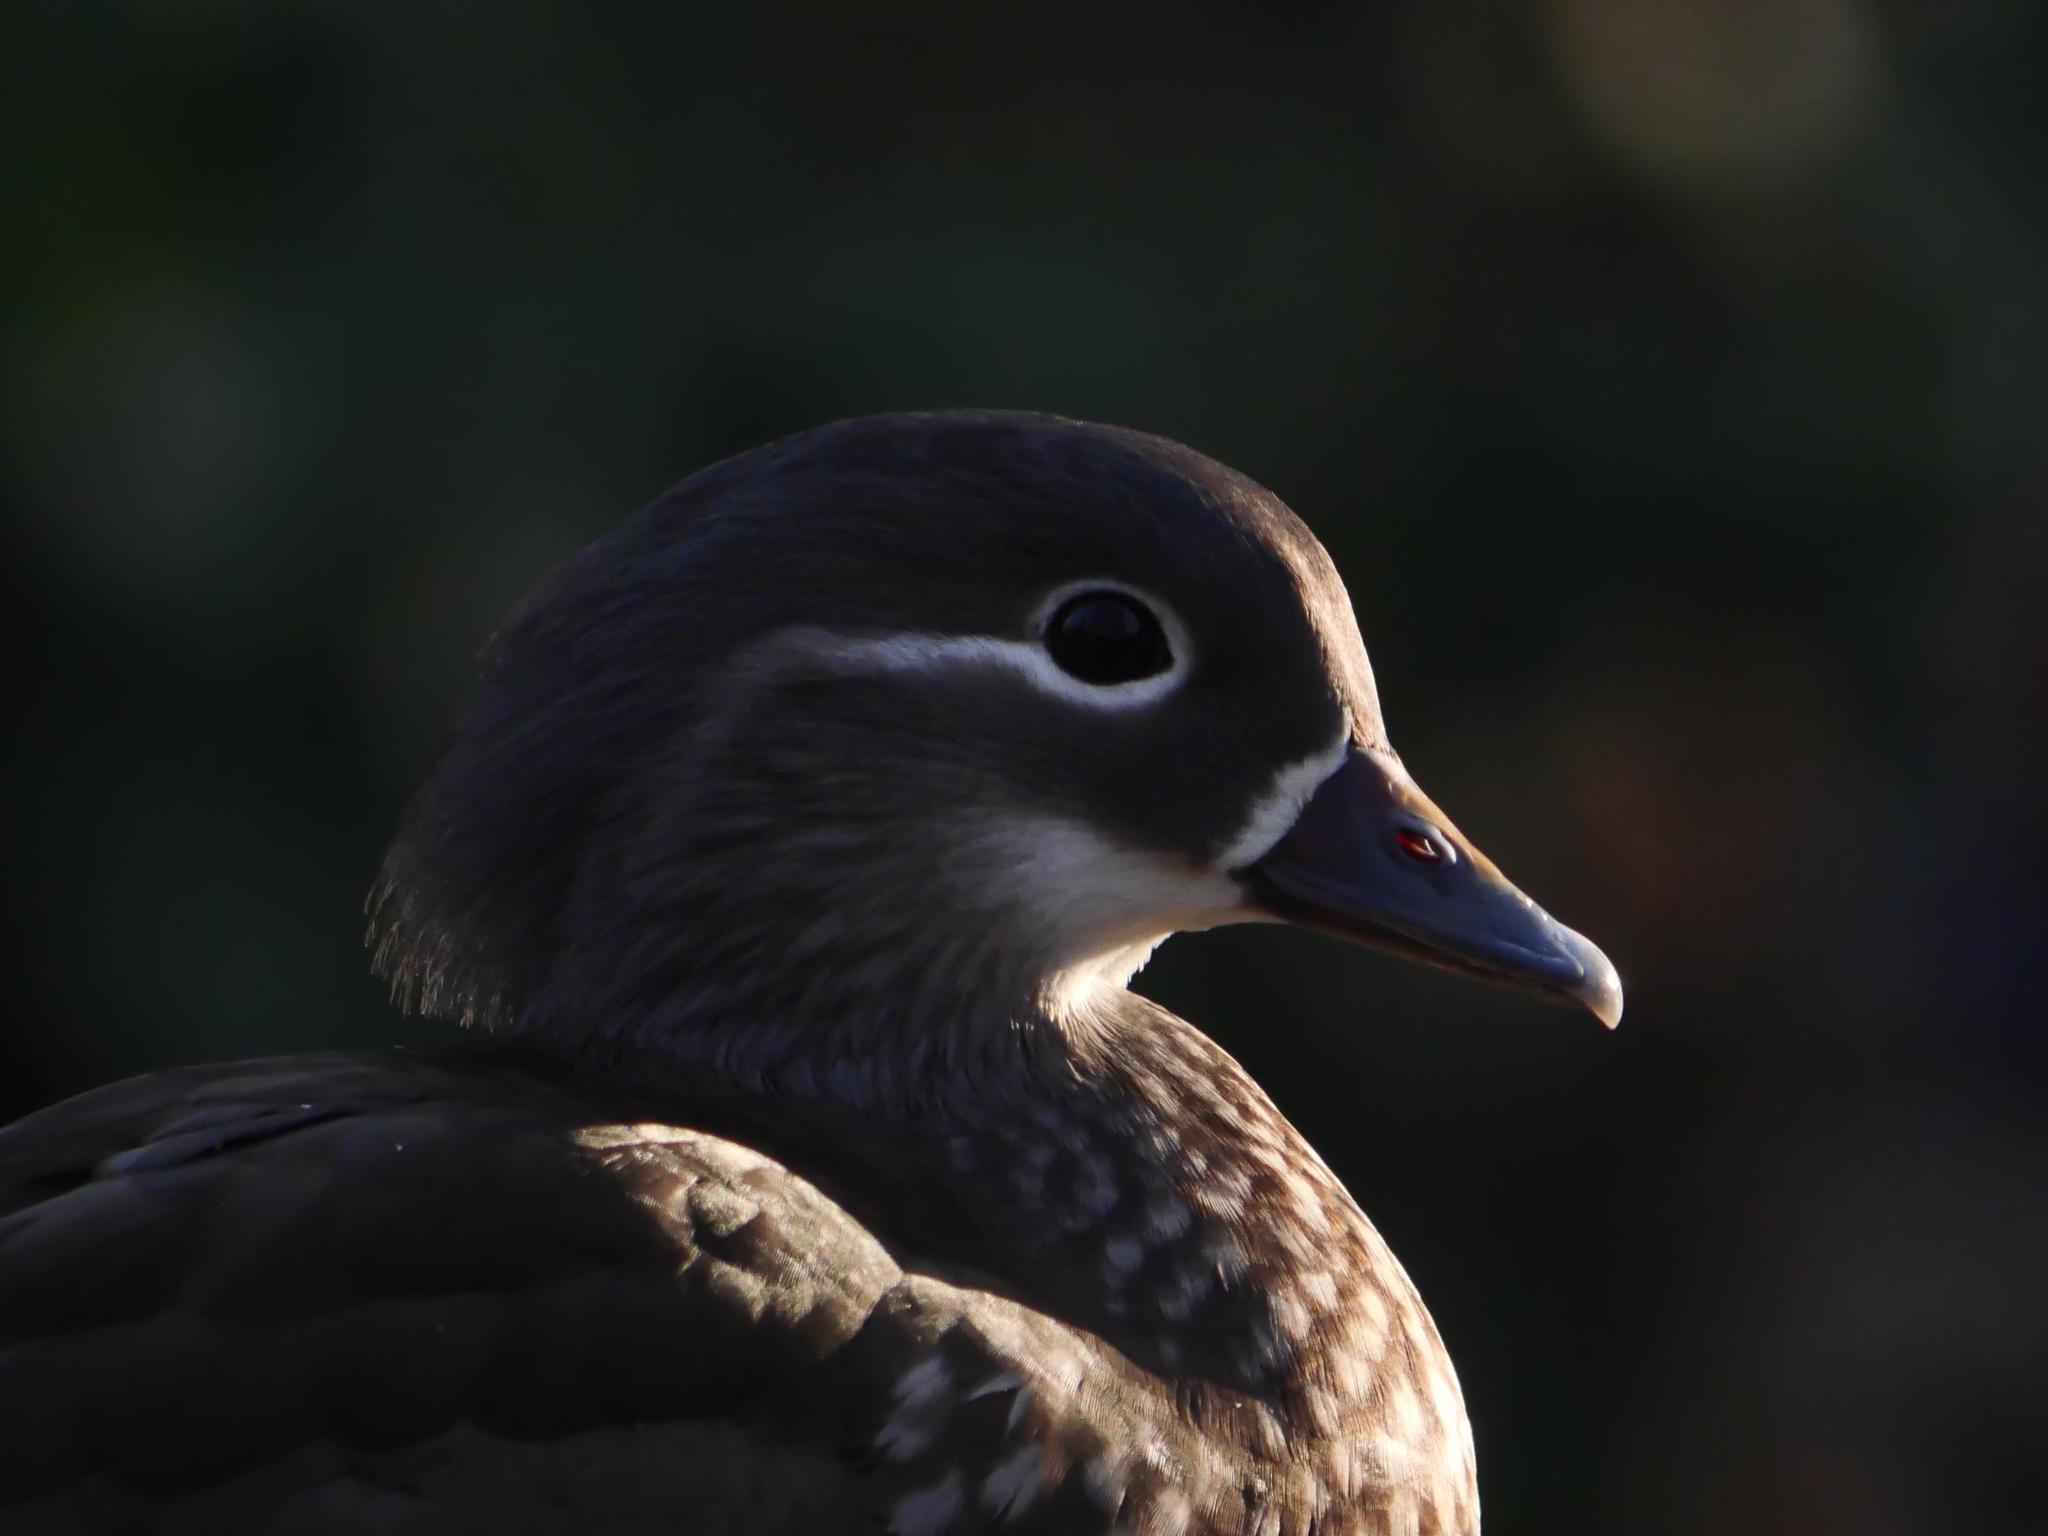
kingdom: Animalia
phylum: Chordata
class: Aves
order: Anseriformes
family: Anatidae
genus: Aix
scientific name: Aix galericulata
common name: Mandarin duck
